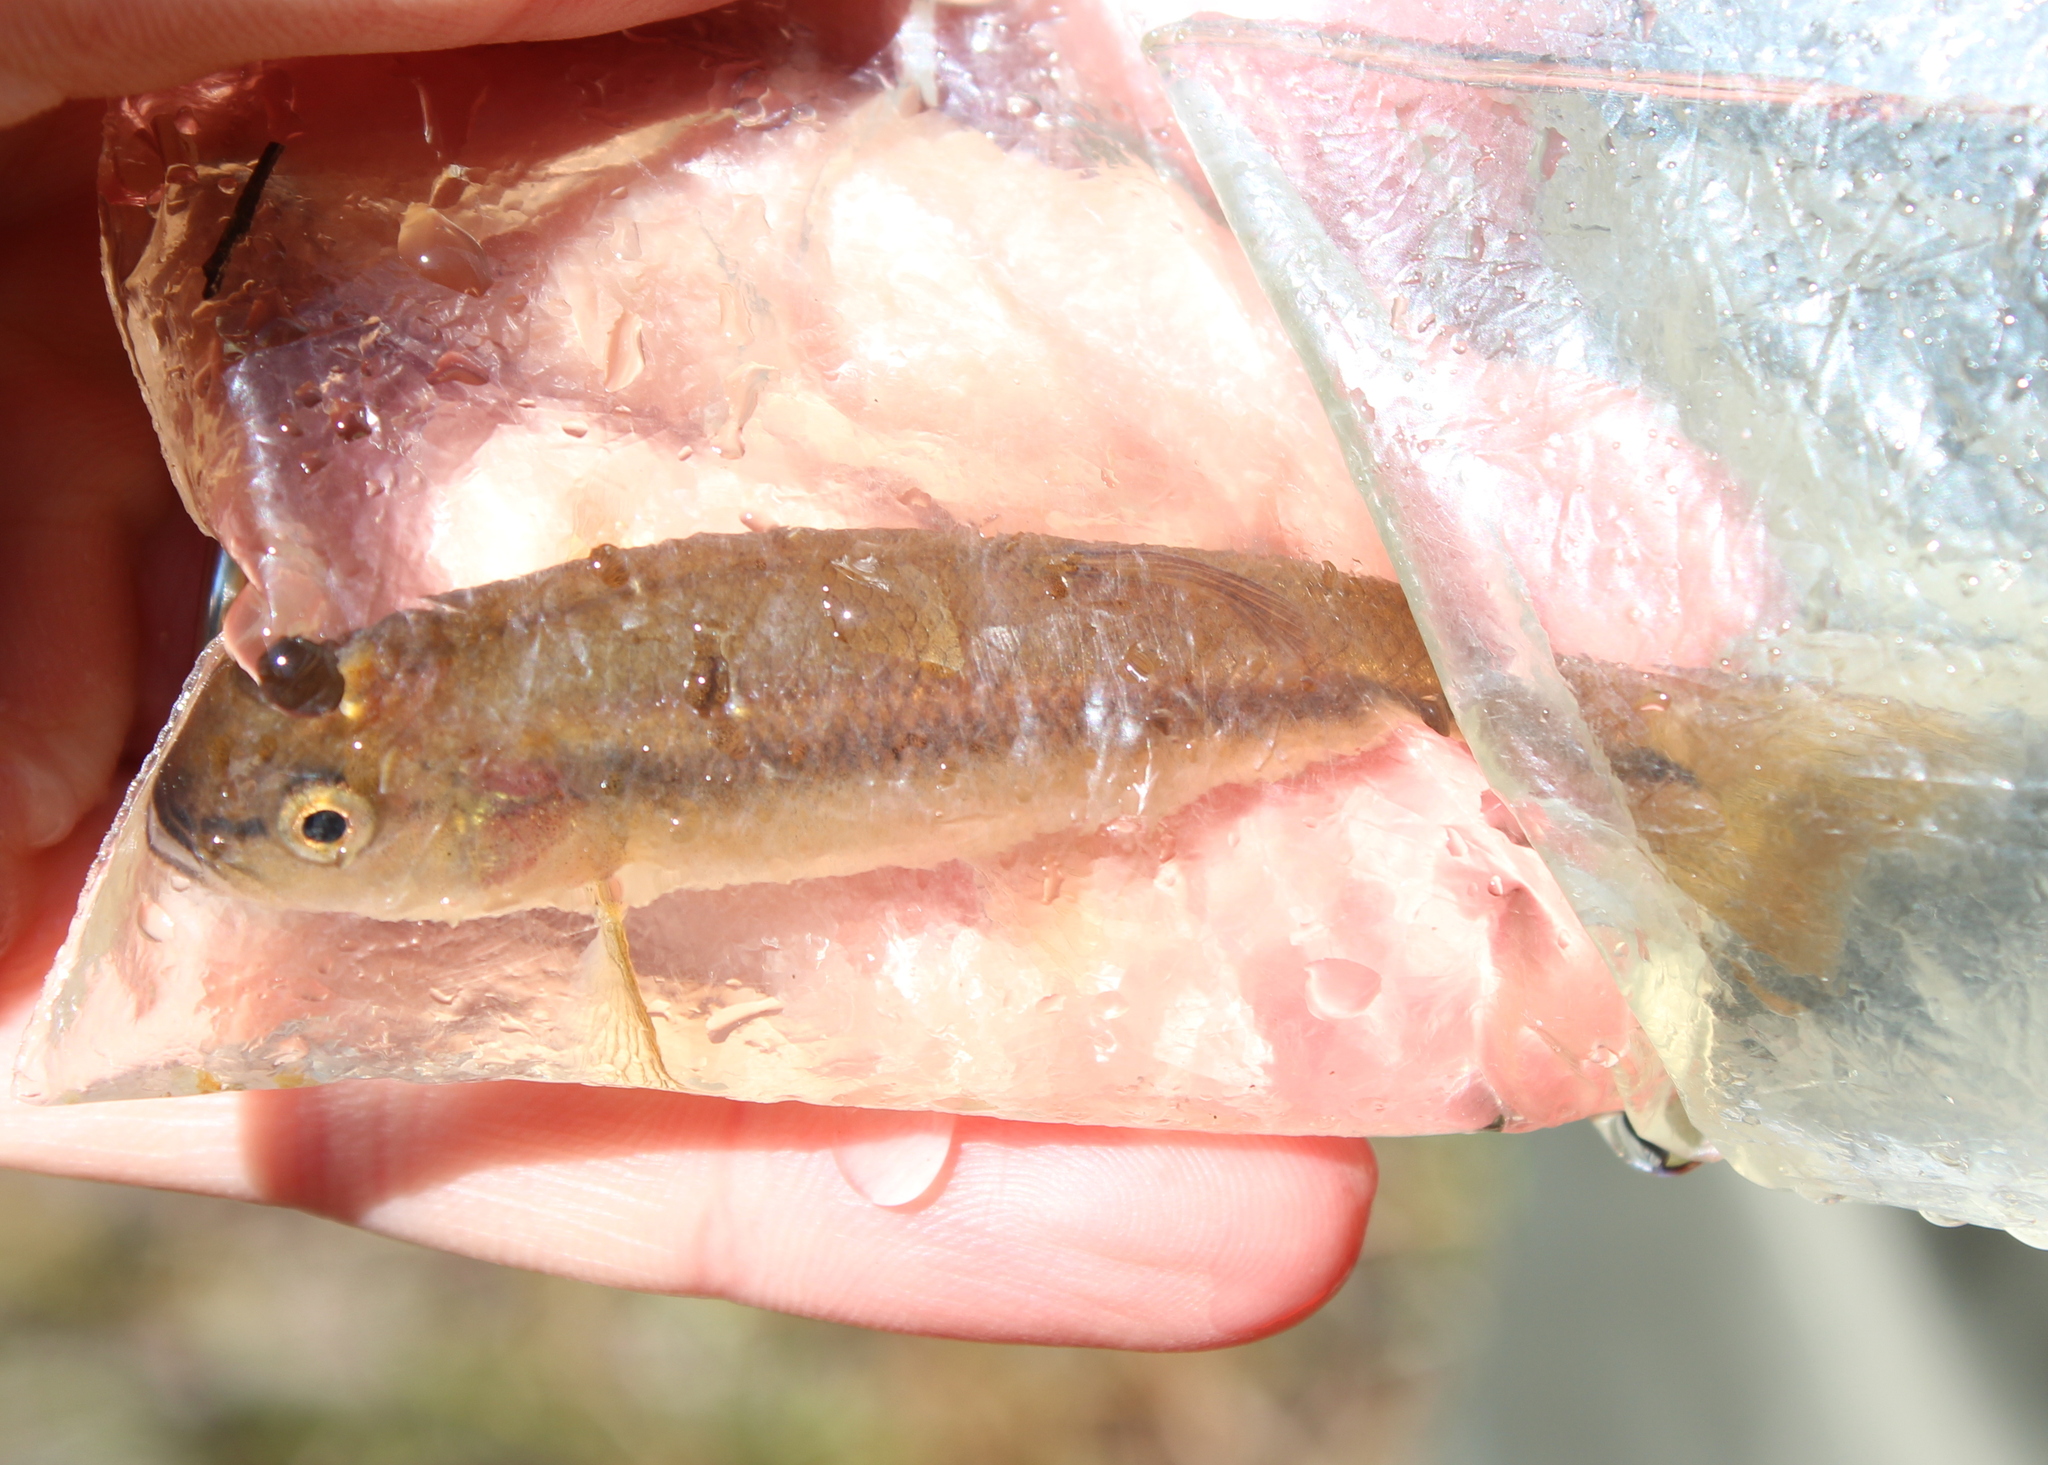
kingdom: Animalia
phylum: Chordata
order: Cypriniformes
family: Cyprinidae
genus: Semotilus
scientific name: Semotilus atromaculatus
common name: Creek chub
